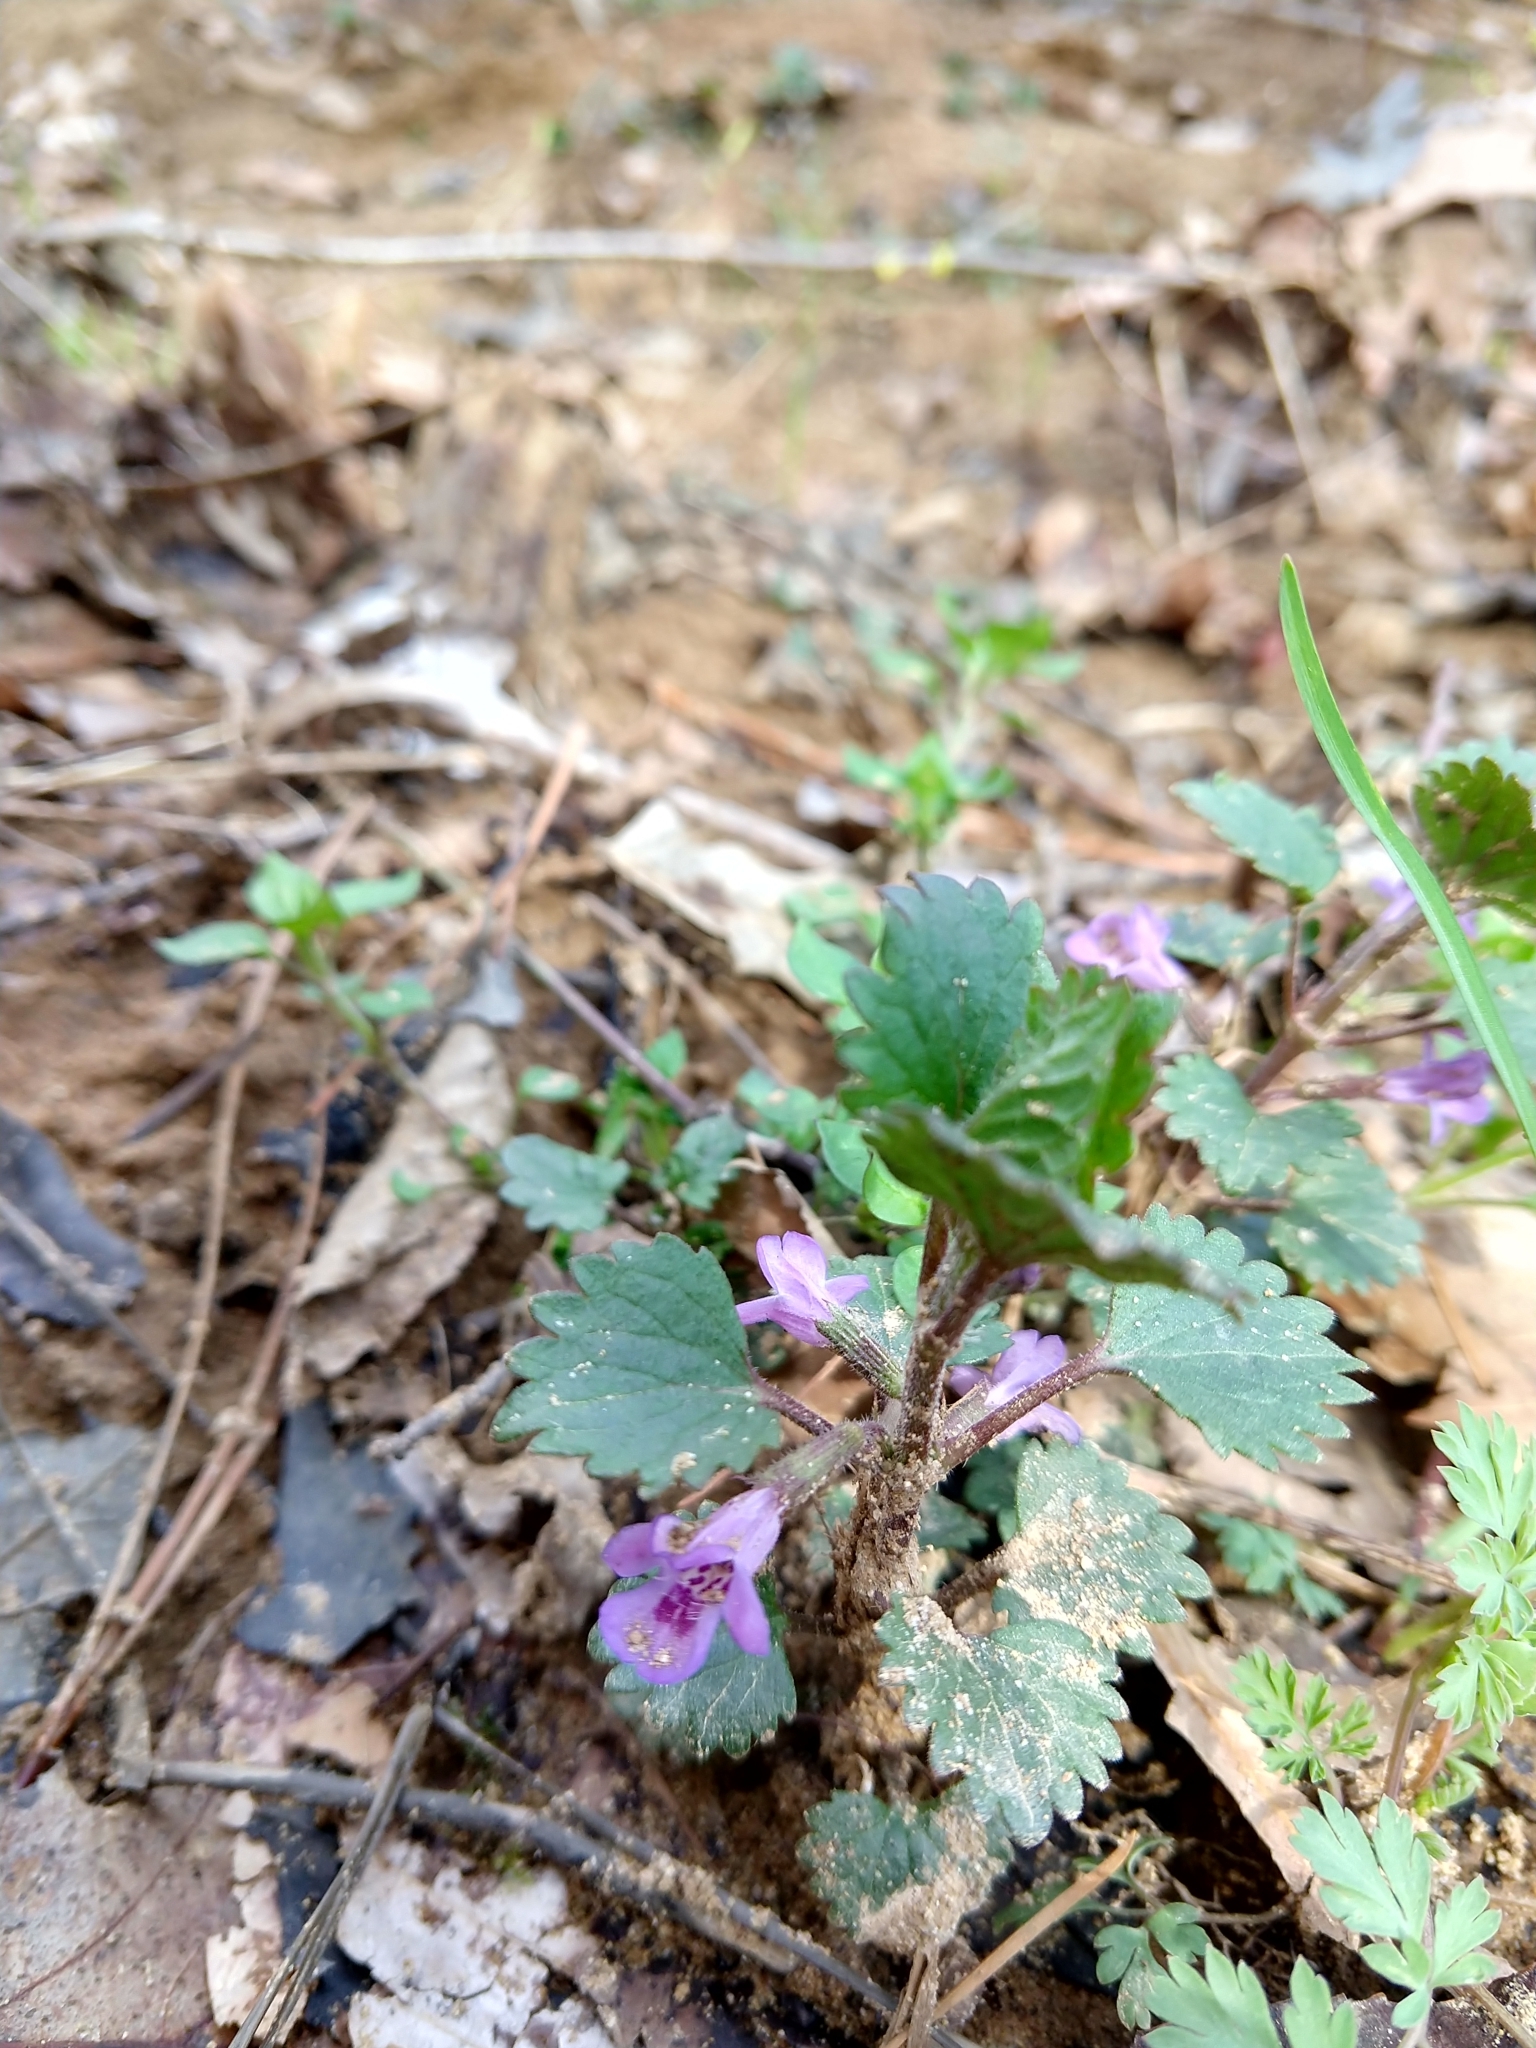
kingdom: Plantae
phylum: Tracheophyta
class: Magnoliopsida
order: Lamiales
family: Lamiaceae
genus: Glechoma
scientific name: Glechoma hederacea
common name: Ground ivy
